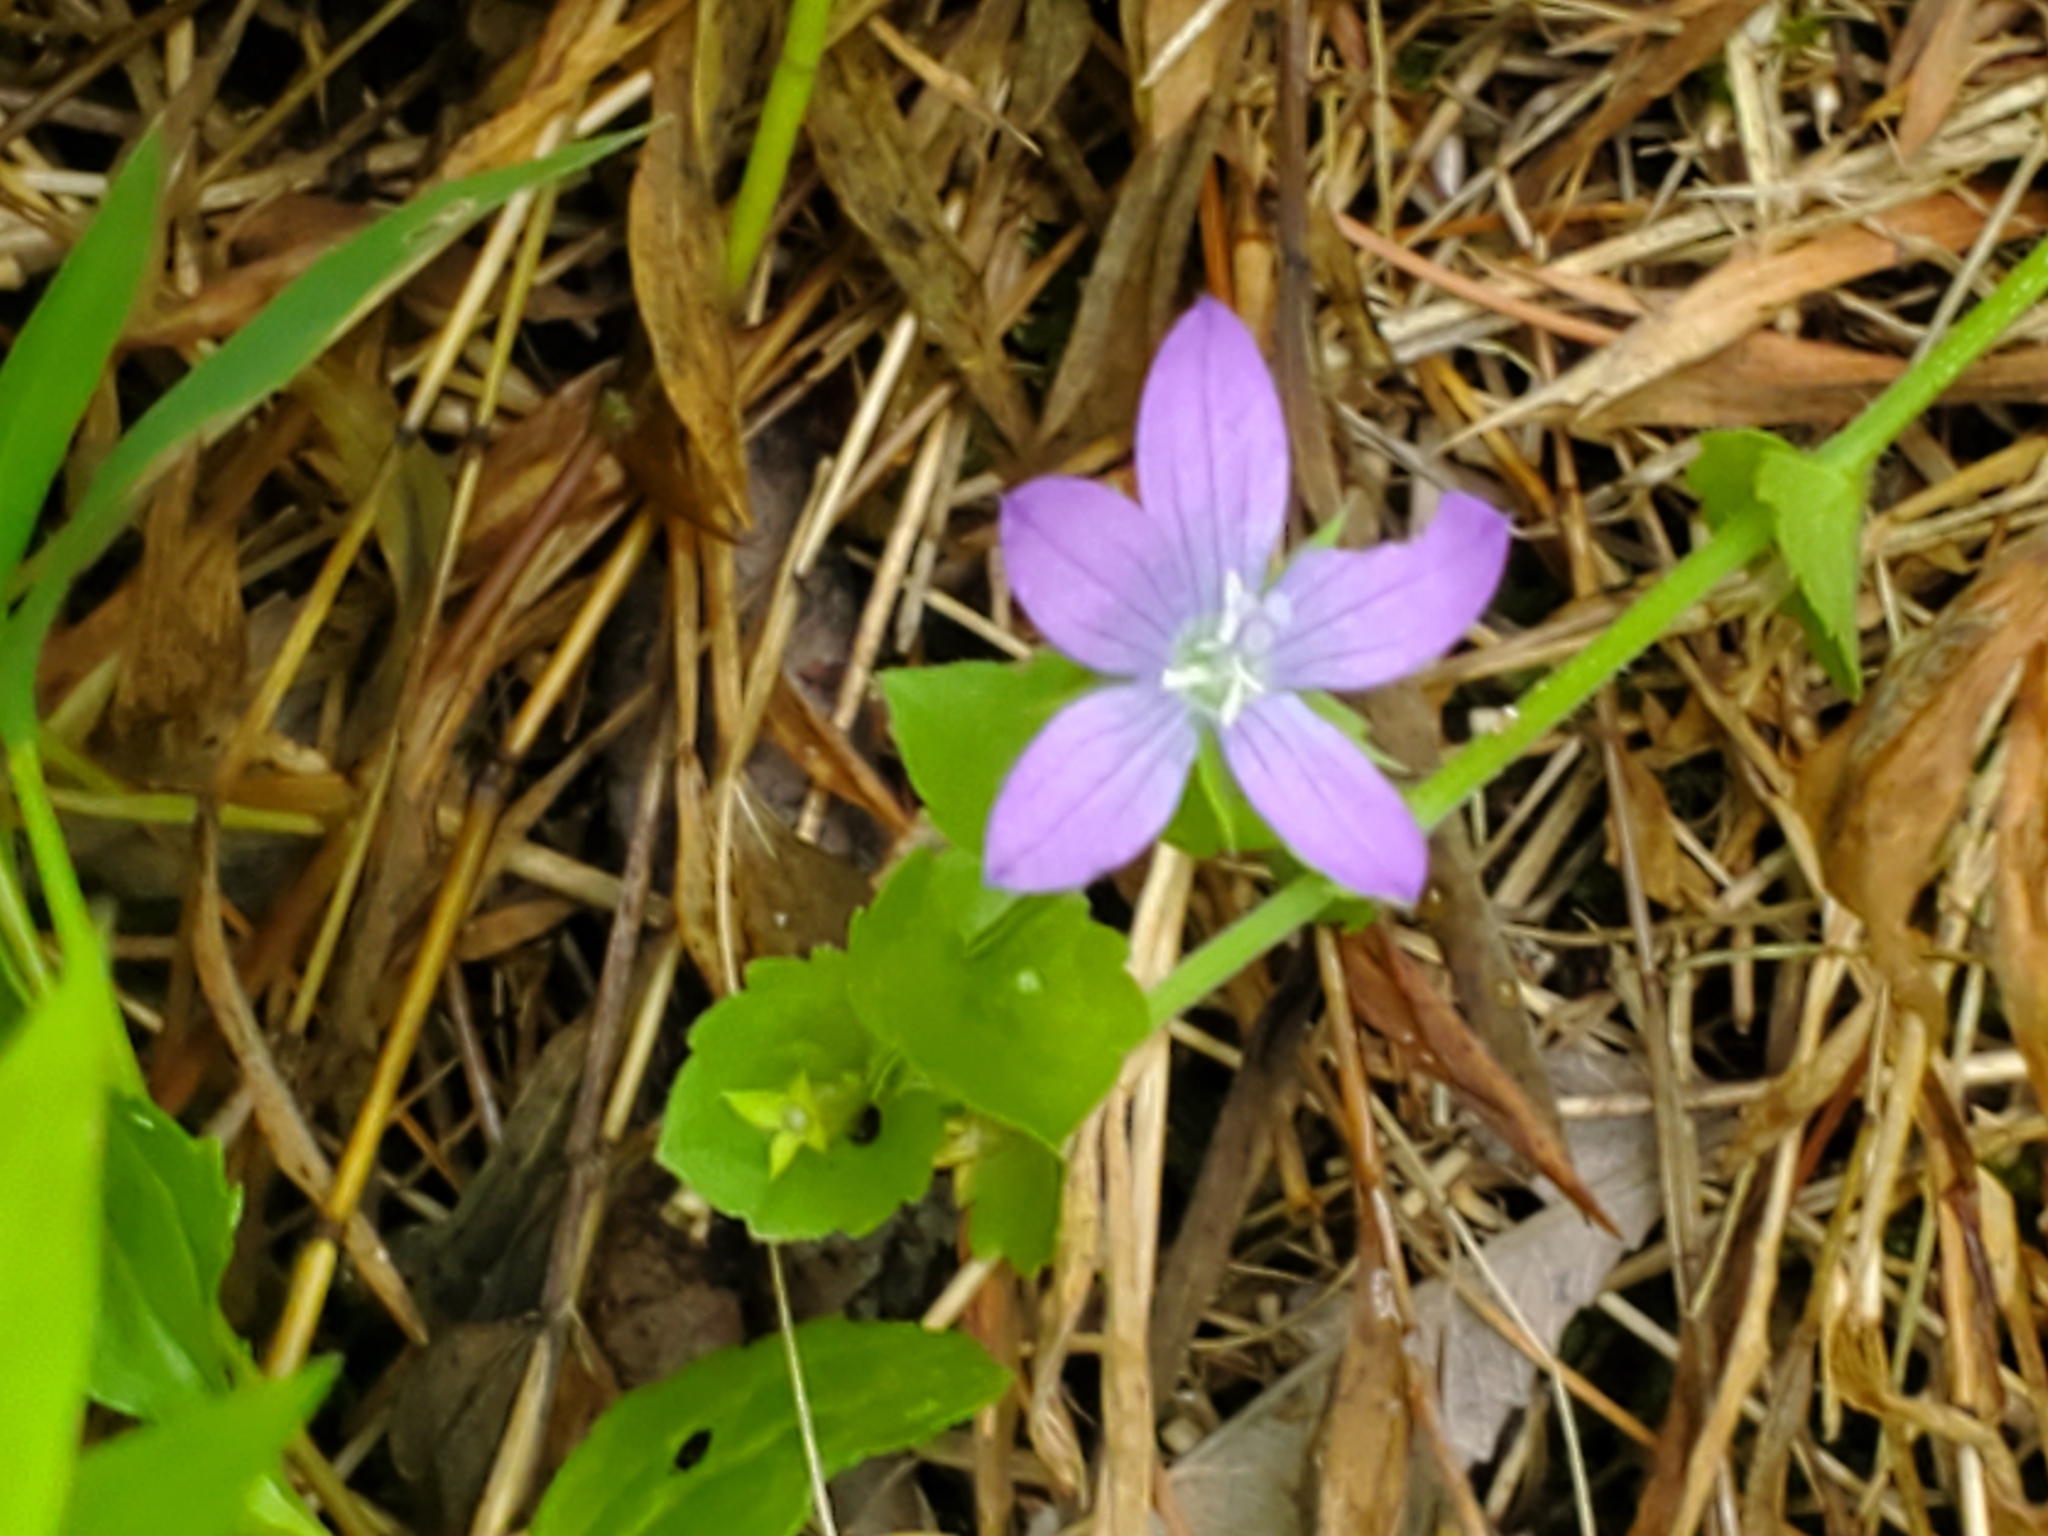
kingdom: Plantae
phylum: Tracheophyta
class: Magnoliopsida
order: Asterales
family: Campanulaceae
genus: Triodanis
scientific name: Triodanis perfoliata
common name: Clasping venus' looking-glass
